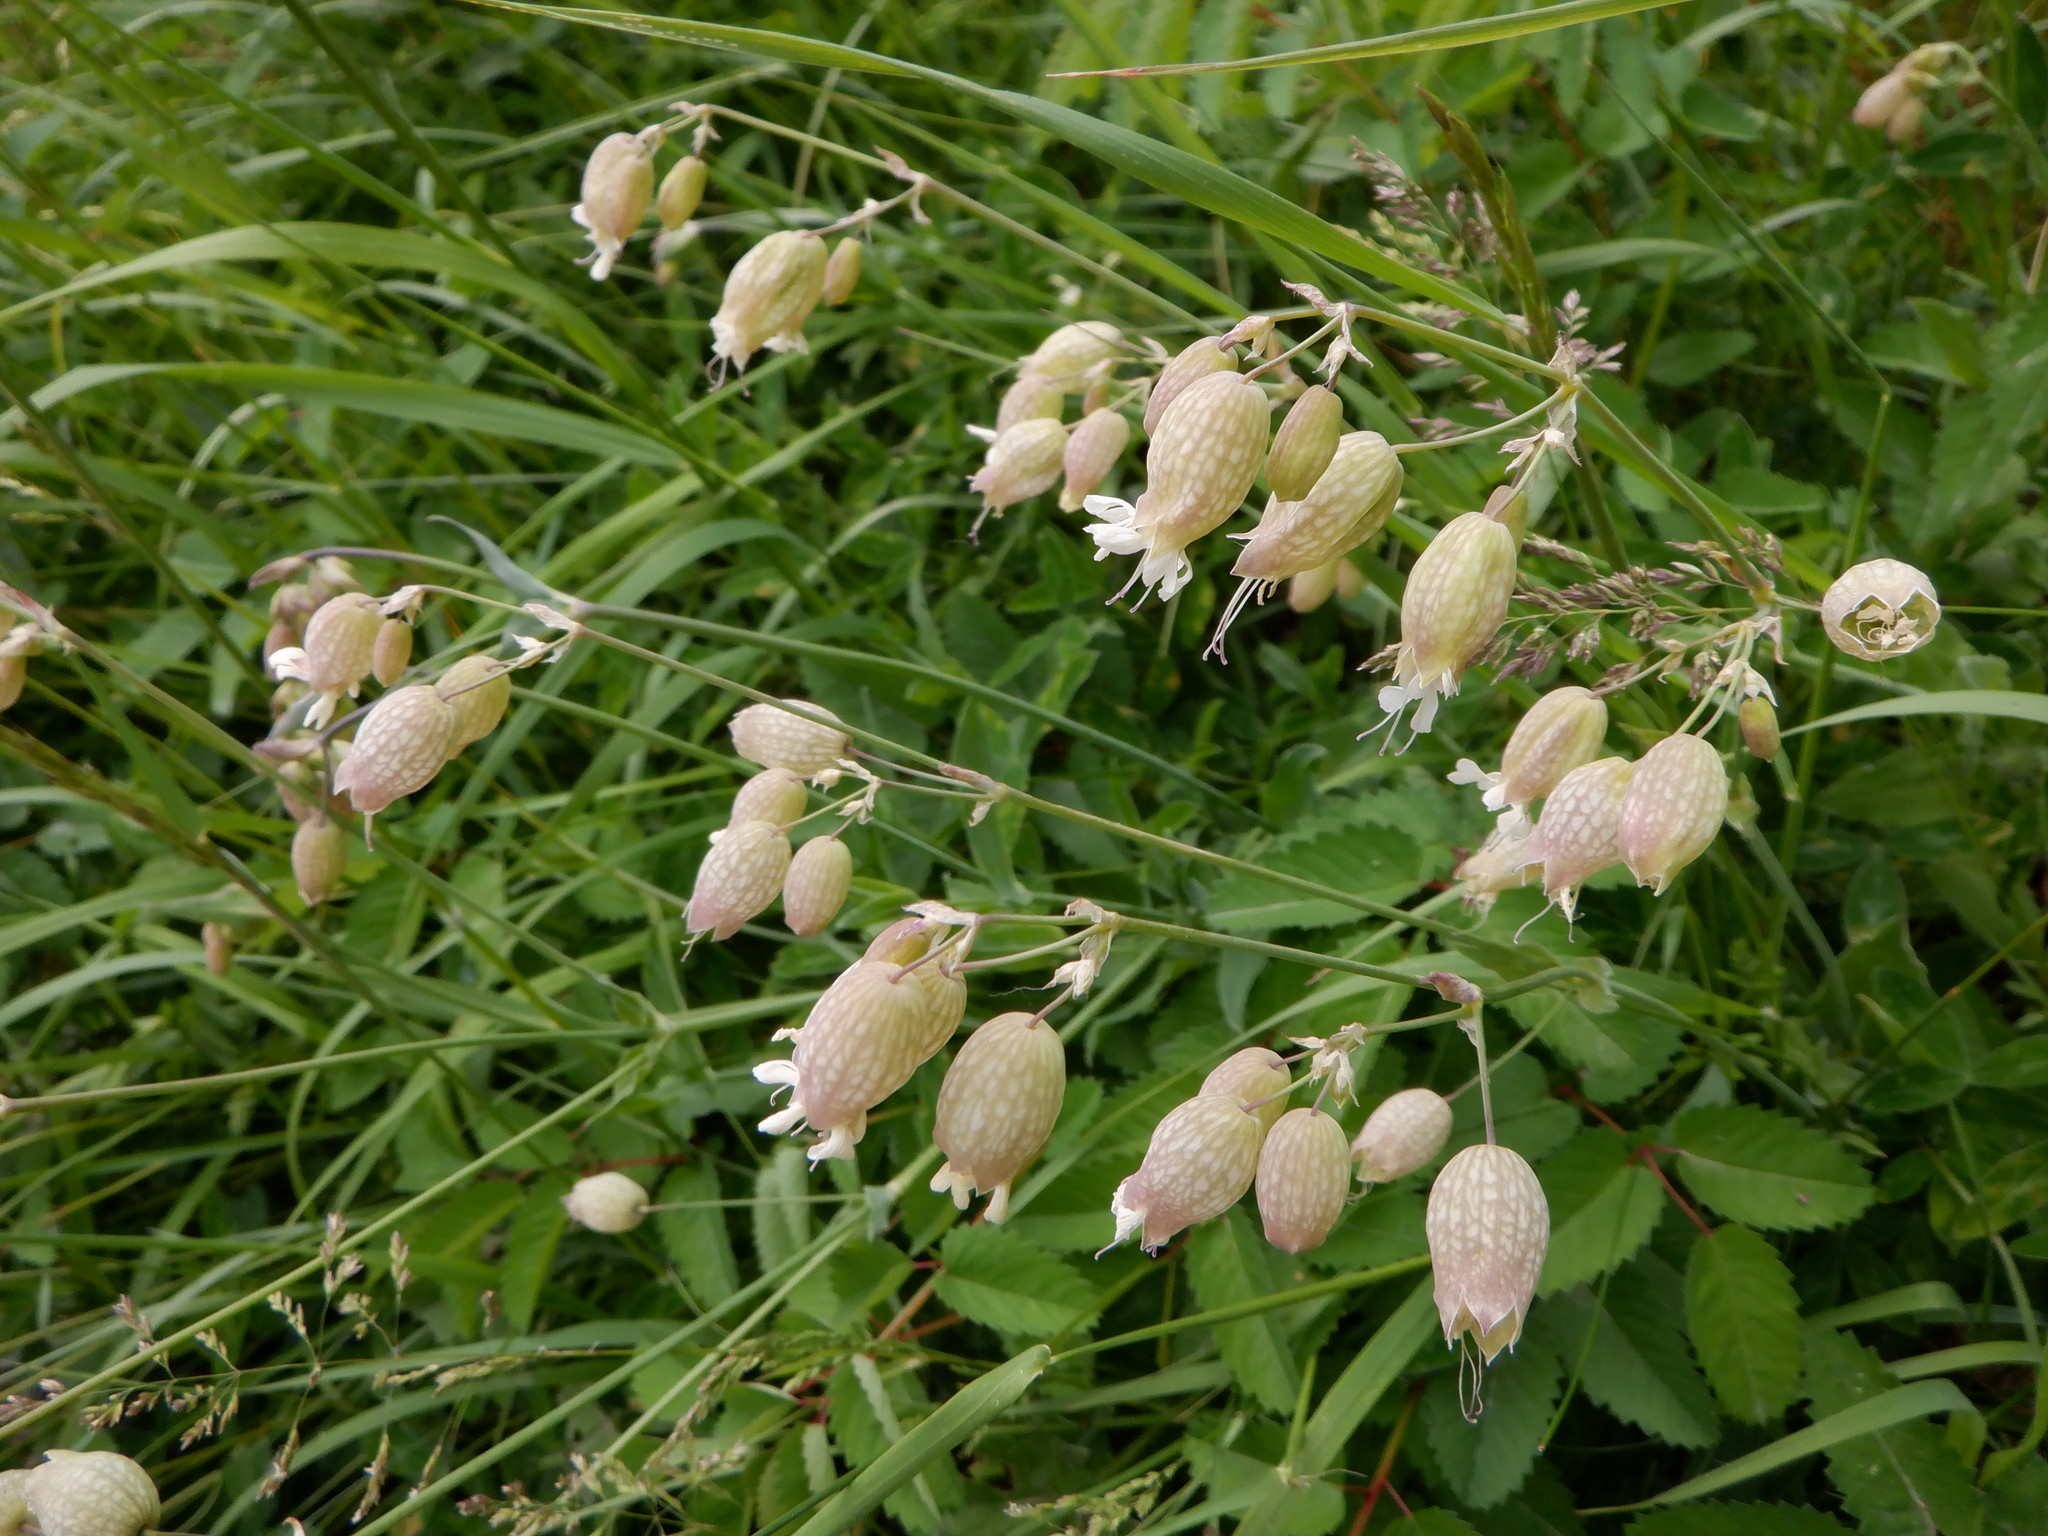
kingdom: Plantae
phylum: Tracheophyta
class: Magnoliopsida
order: Caryophyllales
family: Caryophyllaceae
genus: Silene
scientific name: Silene vulgaris
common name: Bladder campion
